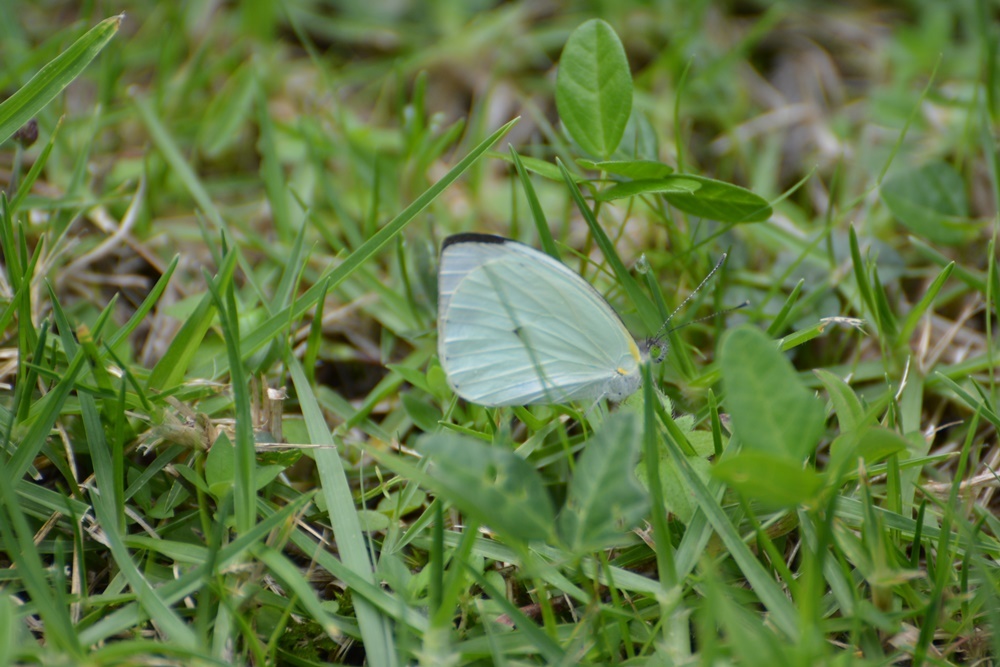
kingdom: Animalia
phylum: Arthropoda
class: Insecta
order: Lepidoptera
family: Pieridae
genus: Leptophobia
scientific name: Leptophobia aripa
